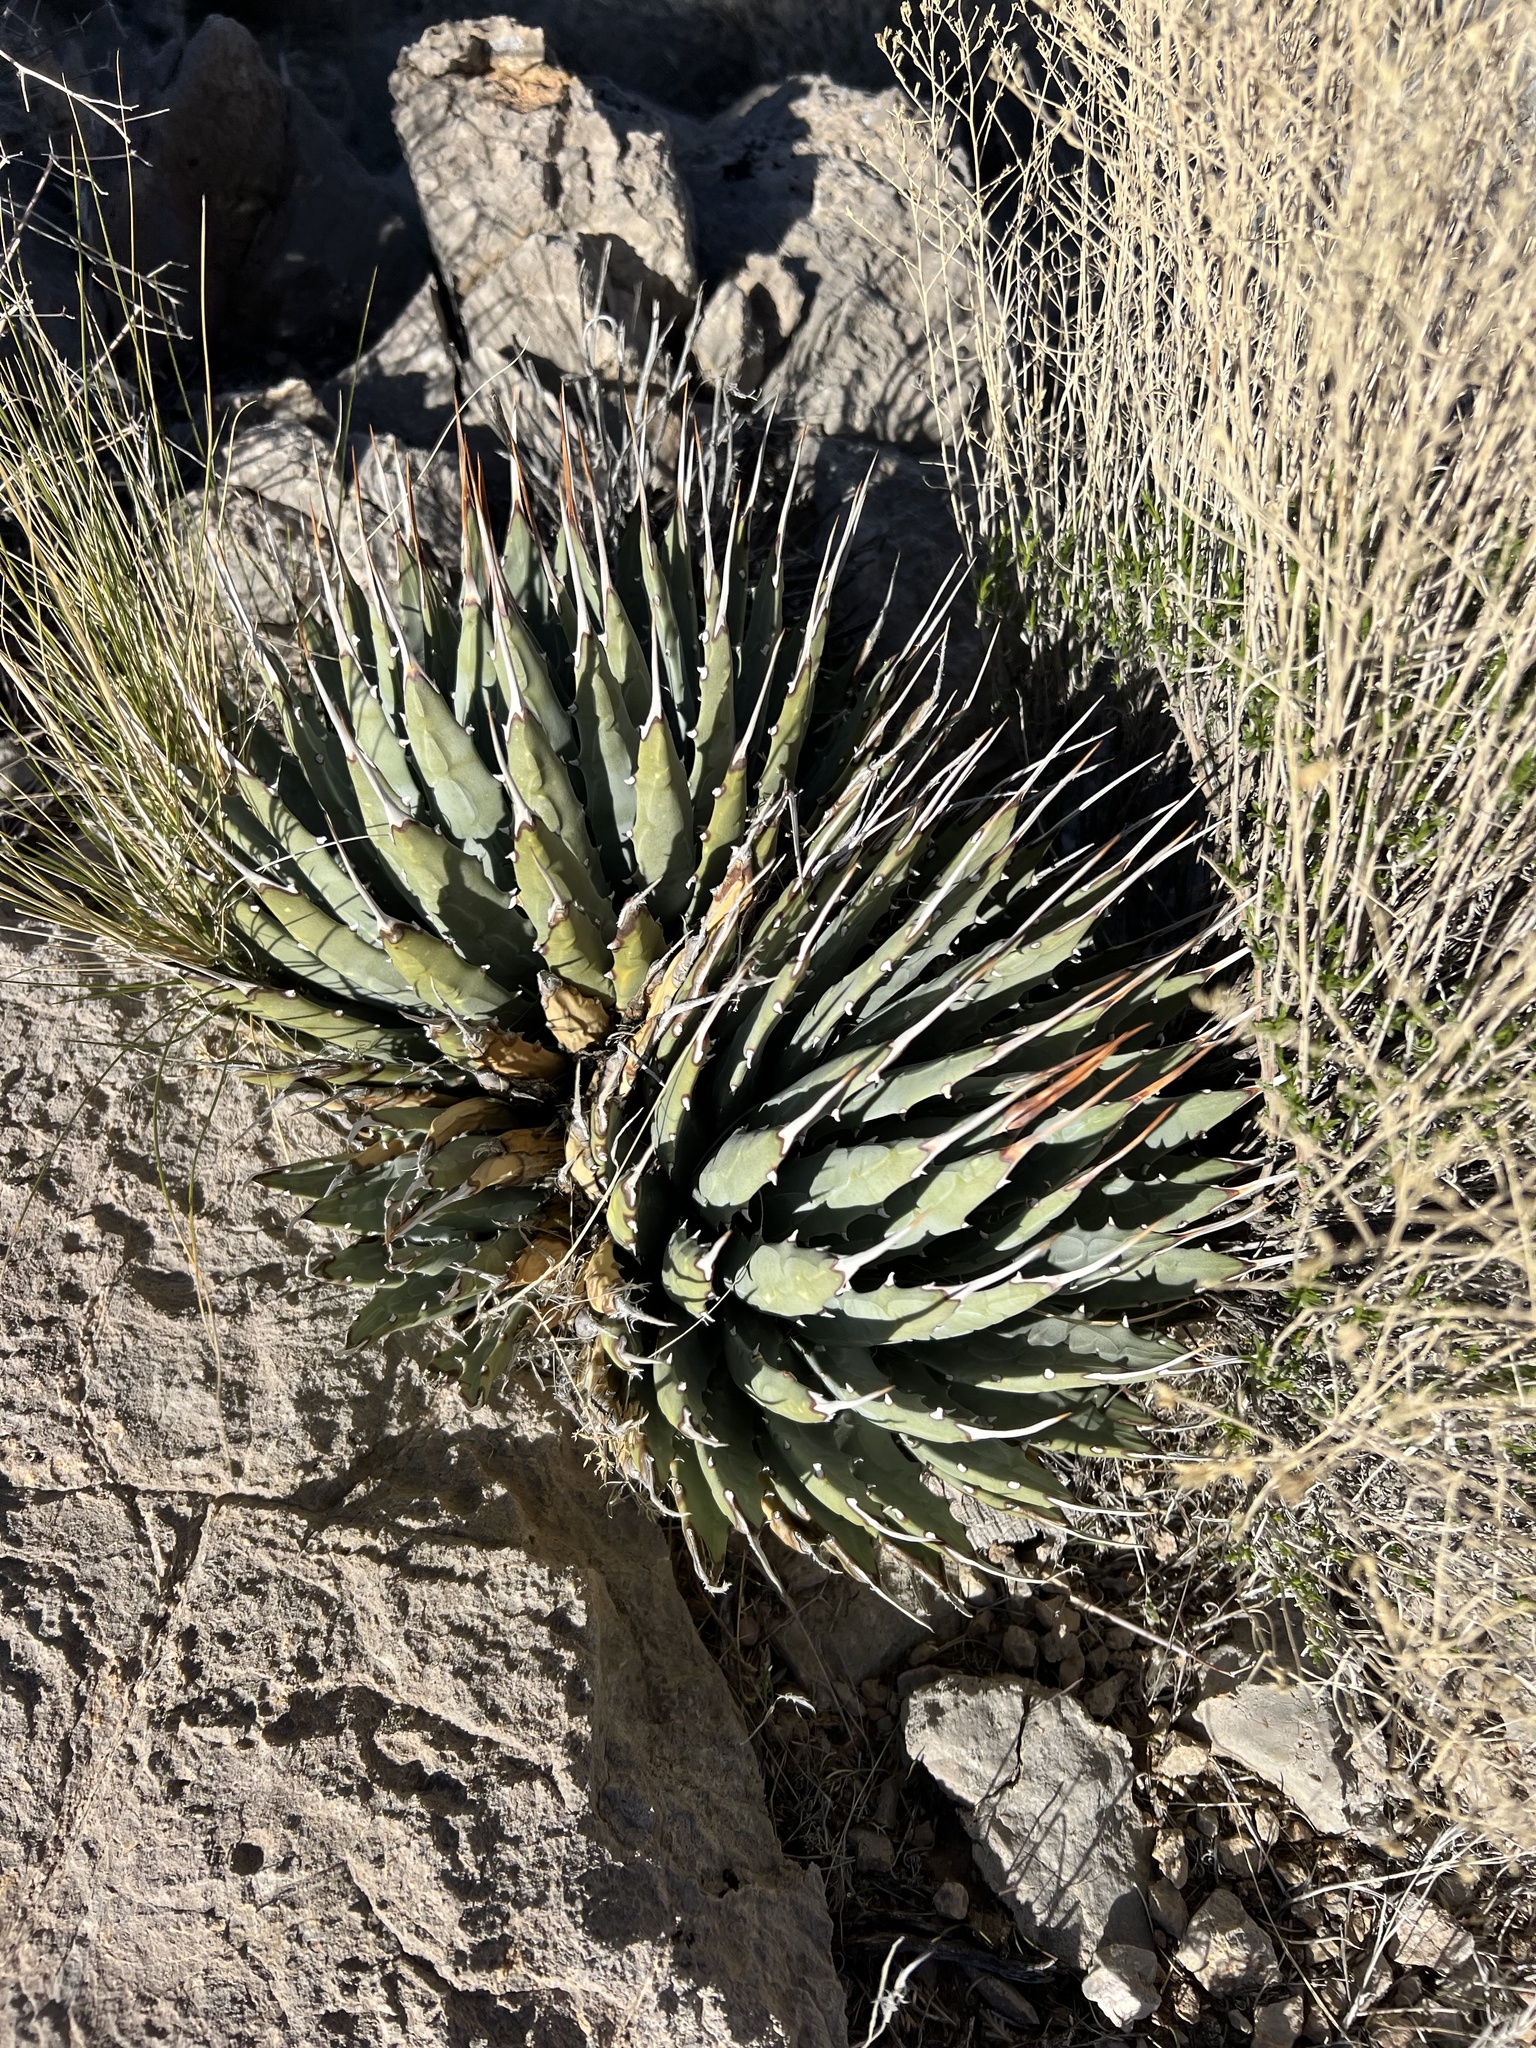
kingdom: Plantae
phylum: Tracheophyta
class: Liliopsida
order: Asparagales
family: Asparagaceae
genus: Agave
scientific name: Agave utahensis
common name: Utah agave
